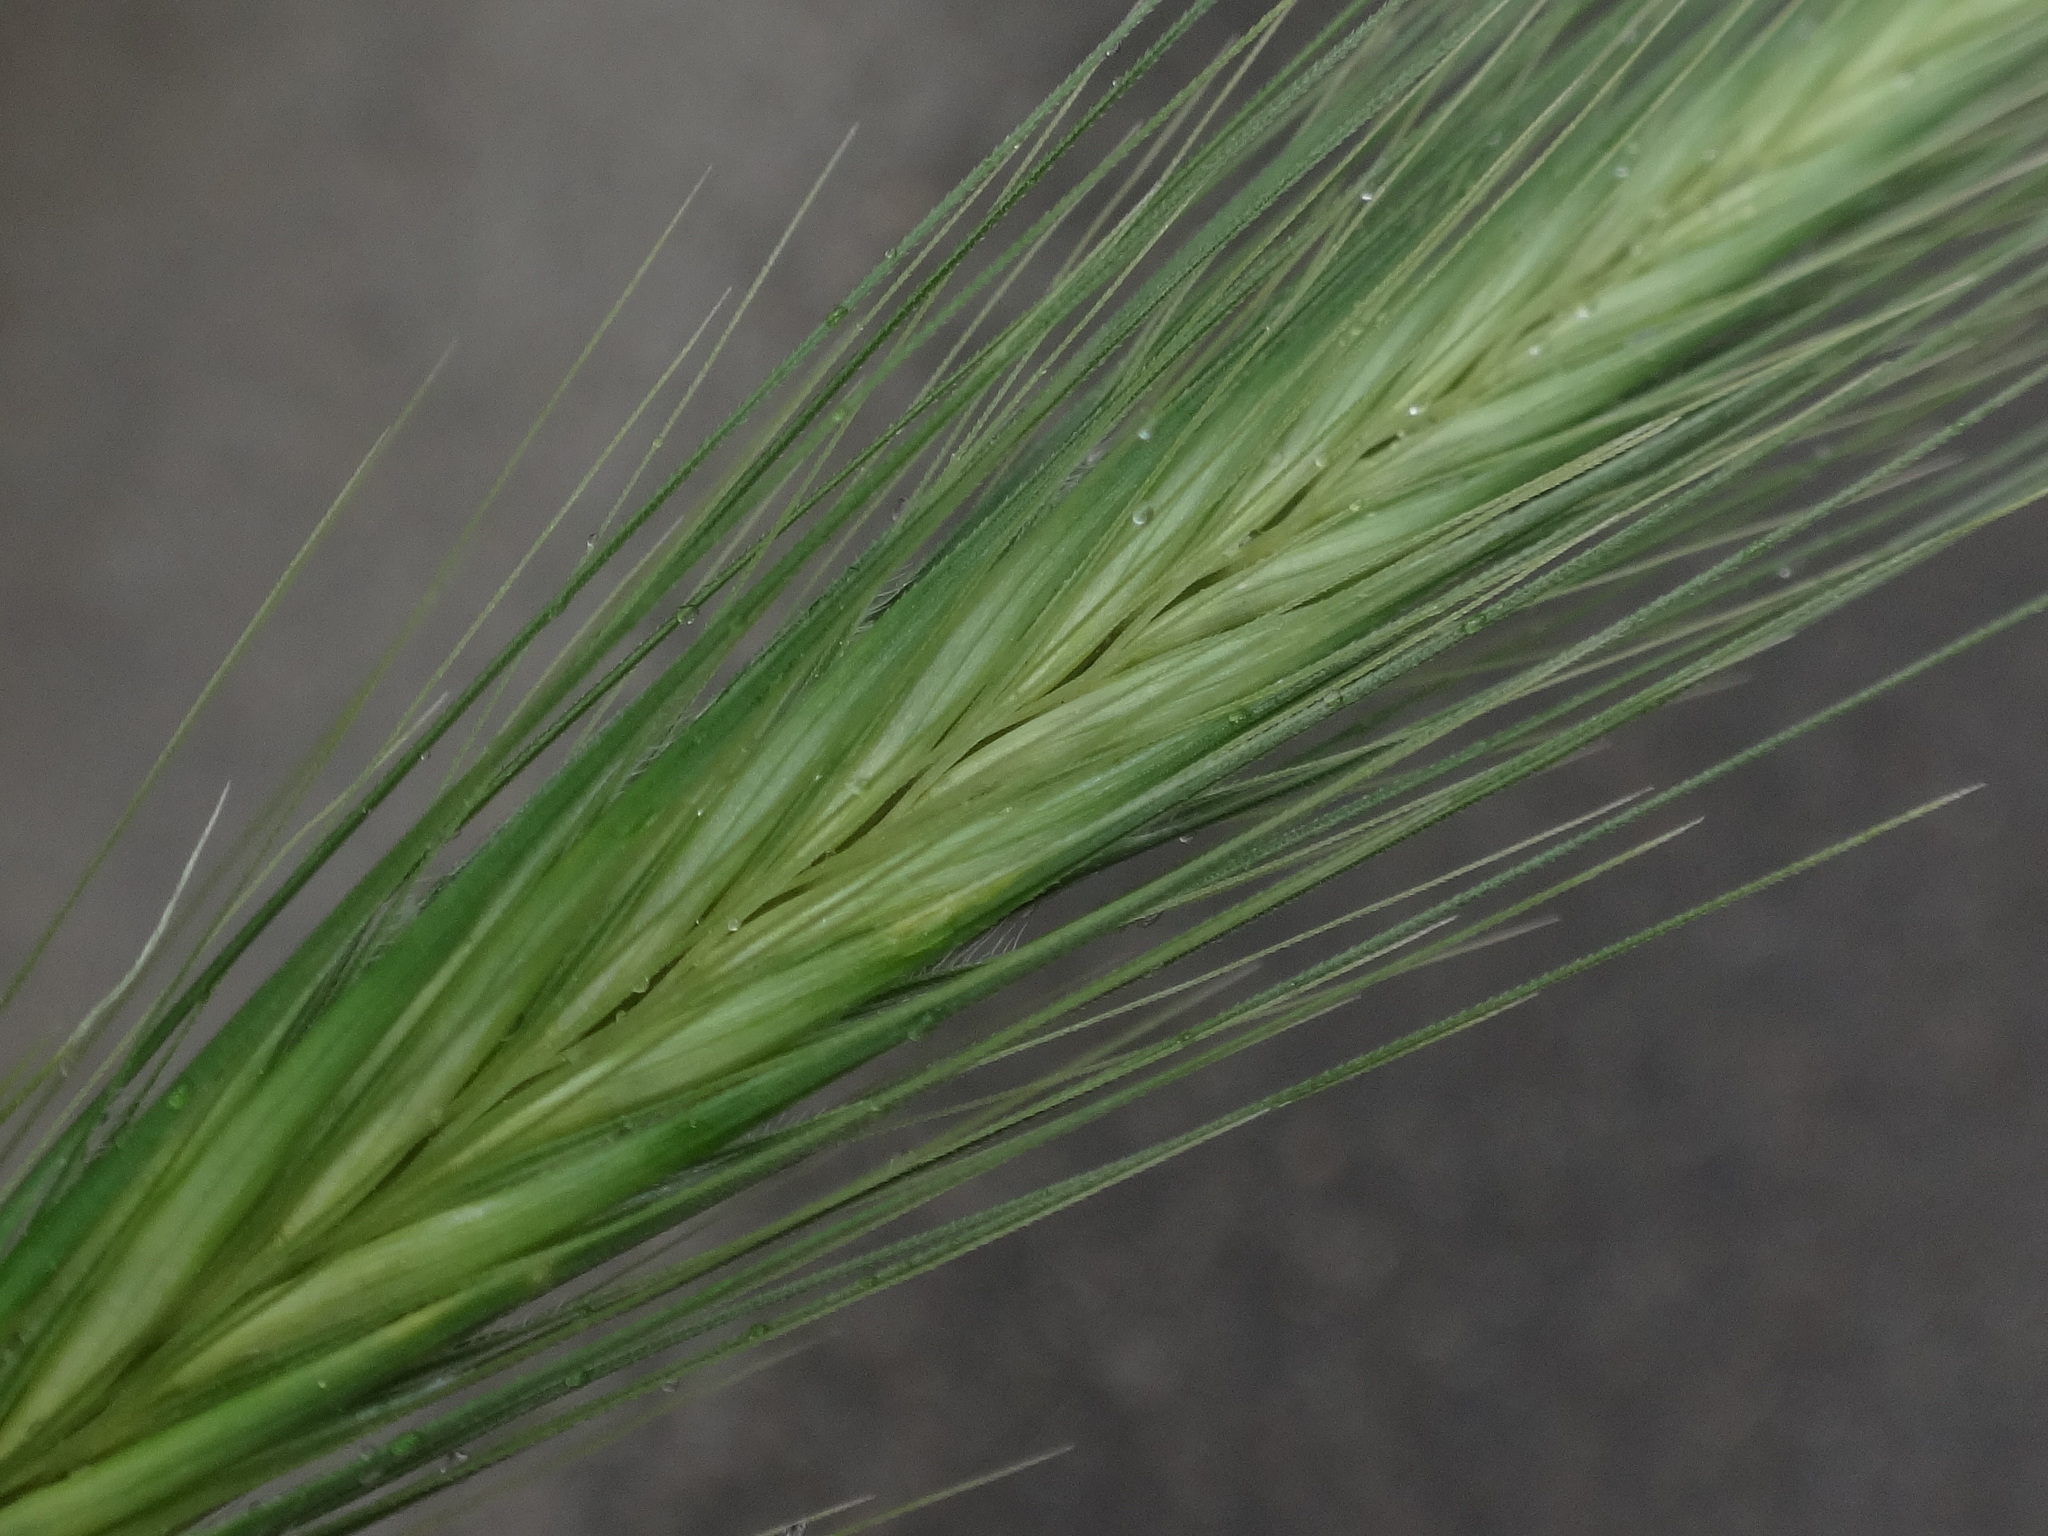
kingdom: Plantae
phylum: Tracheophyta
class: Liliopsida
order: Poales
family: Poaceae
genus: Hordeum
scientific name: Hordeum murinum
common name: Wall barley
